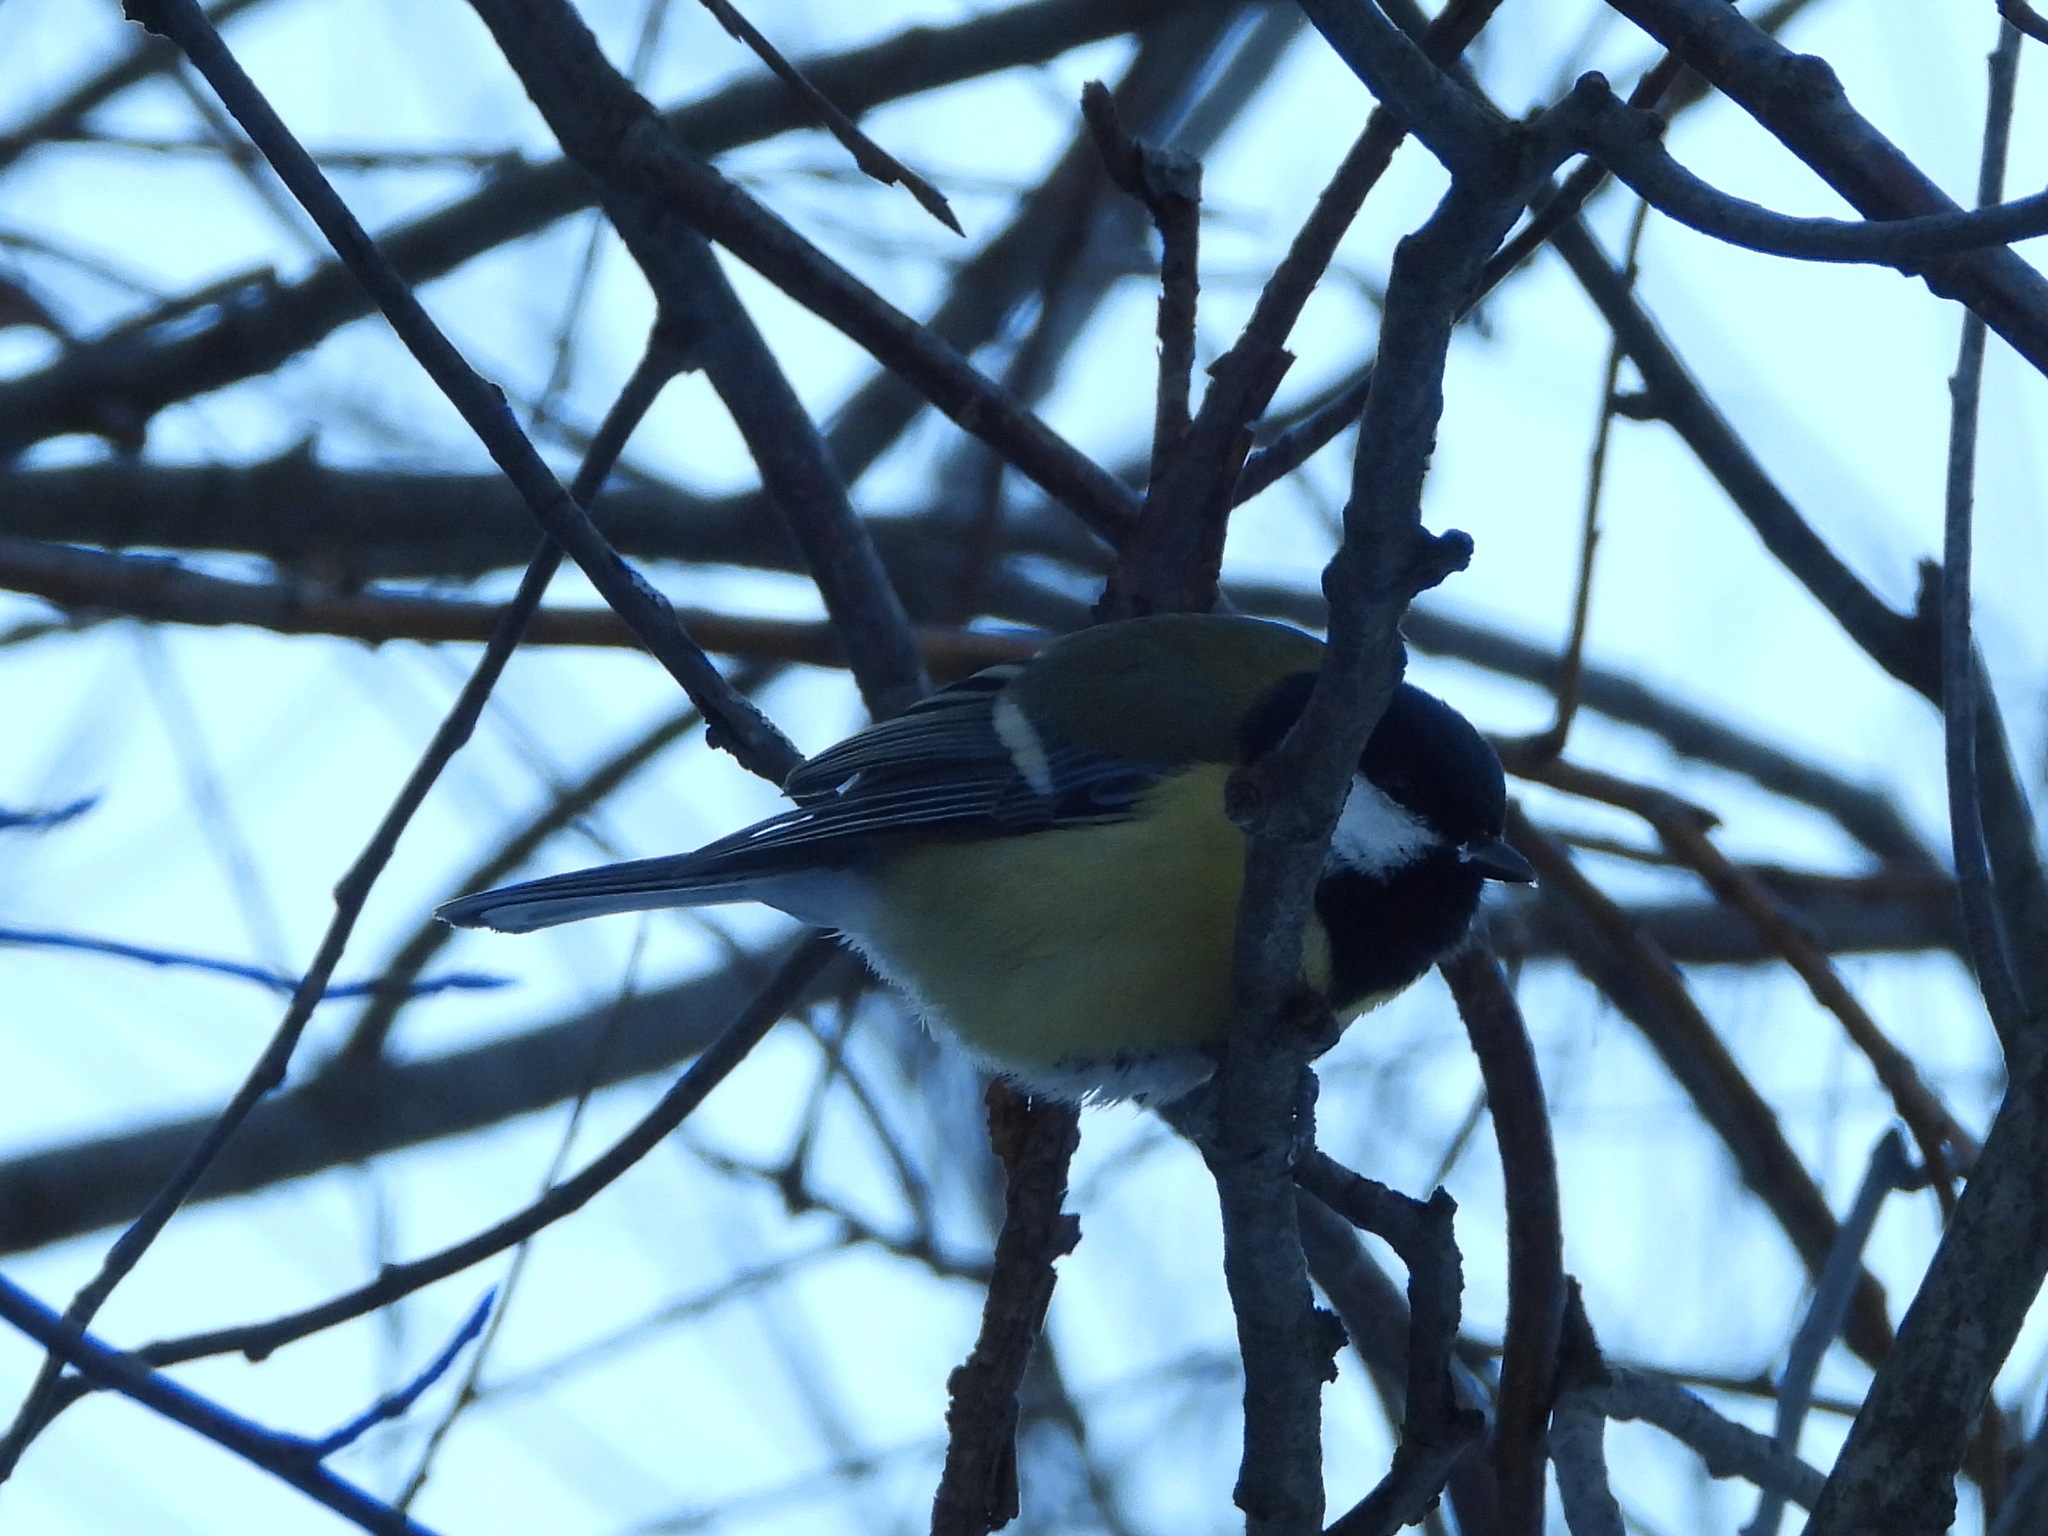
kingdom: Animalia
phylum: Chordata
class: Aves
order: Passeriformes
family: Paridae
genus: Parus
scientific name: Parus major
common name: Great tit
